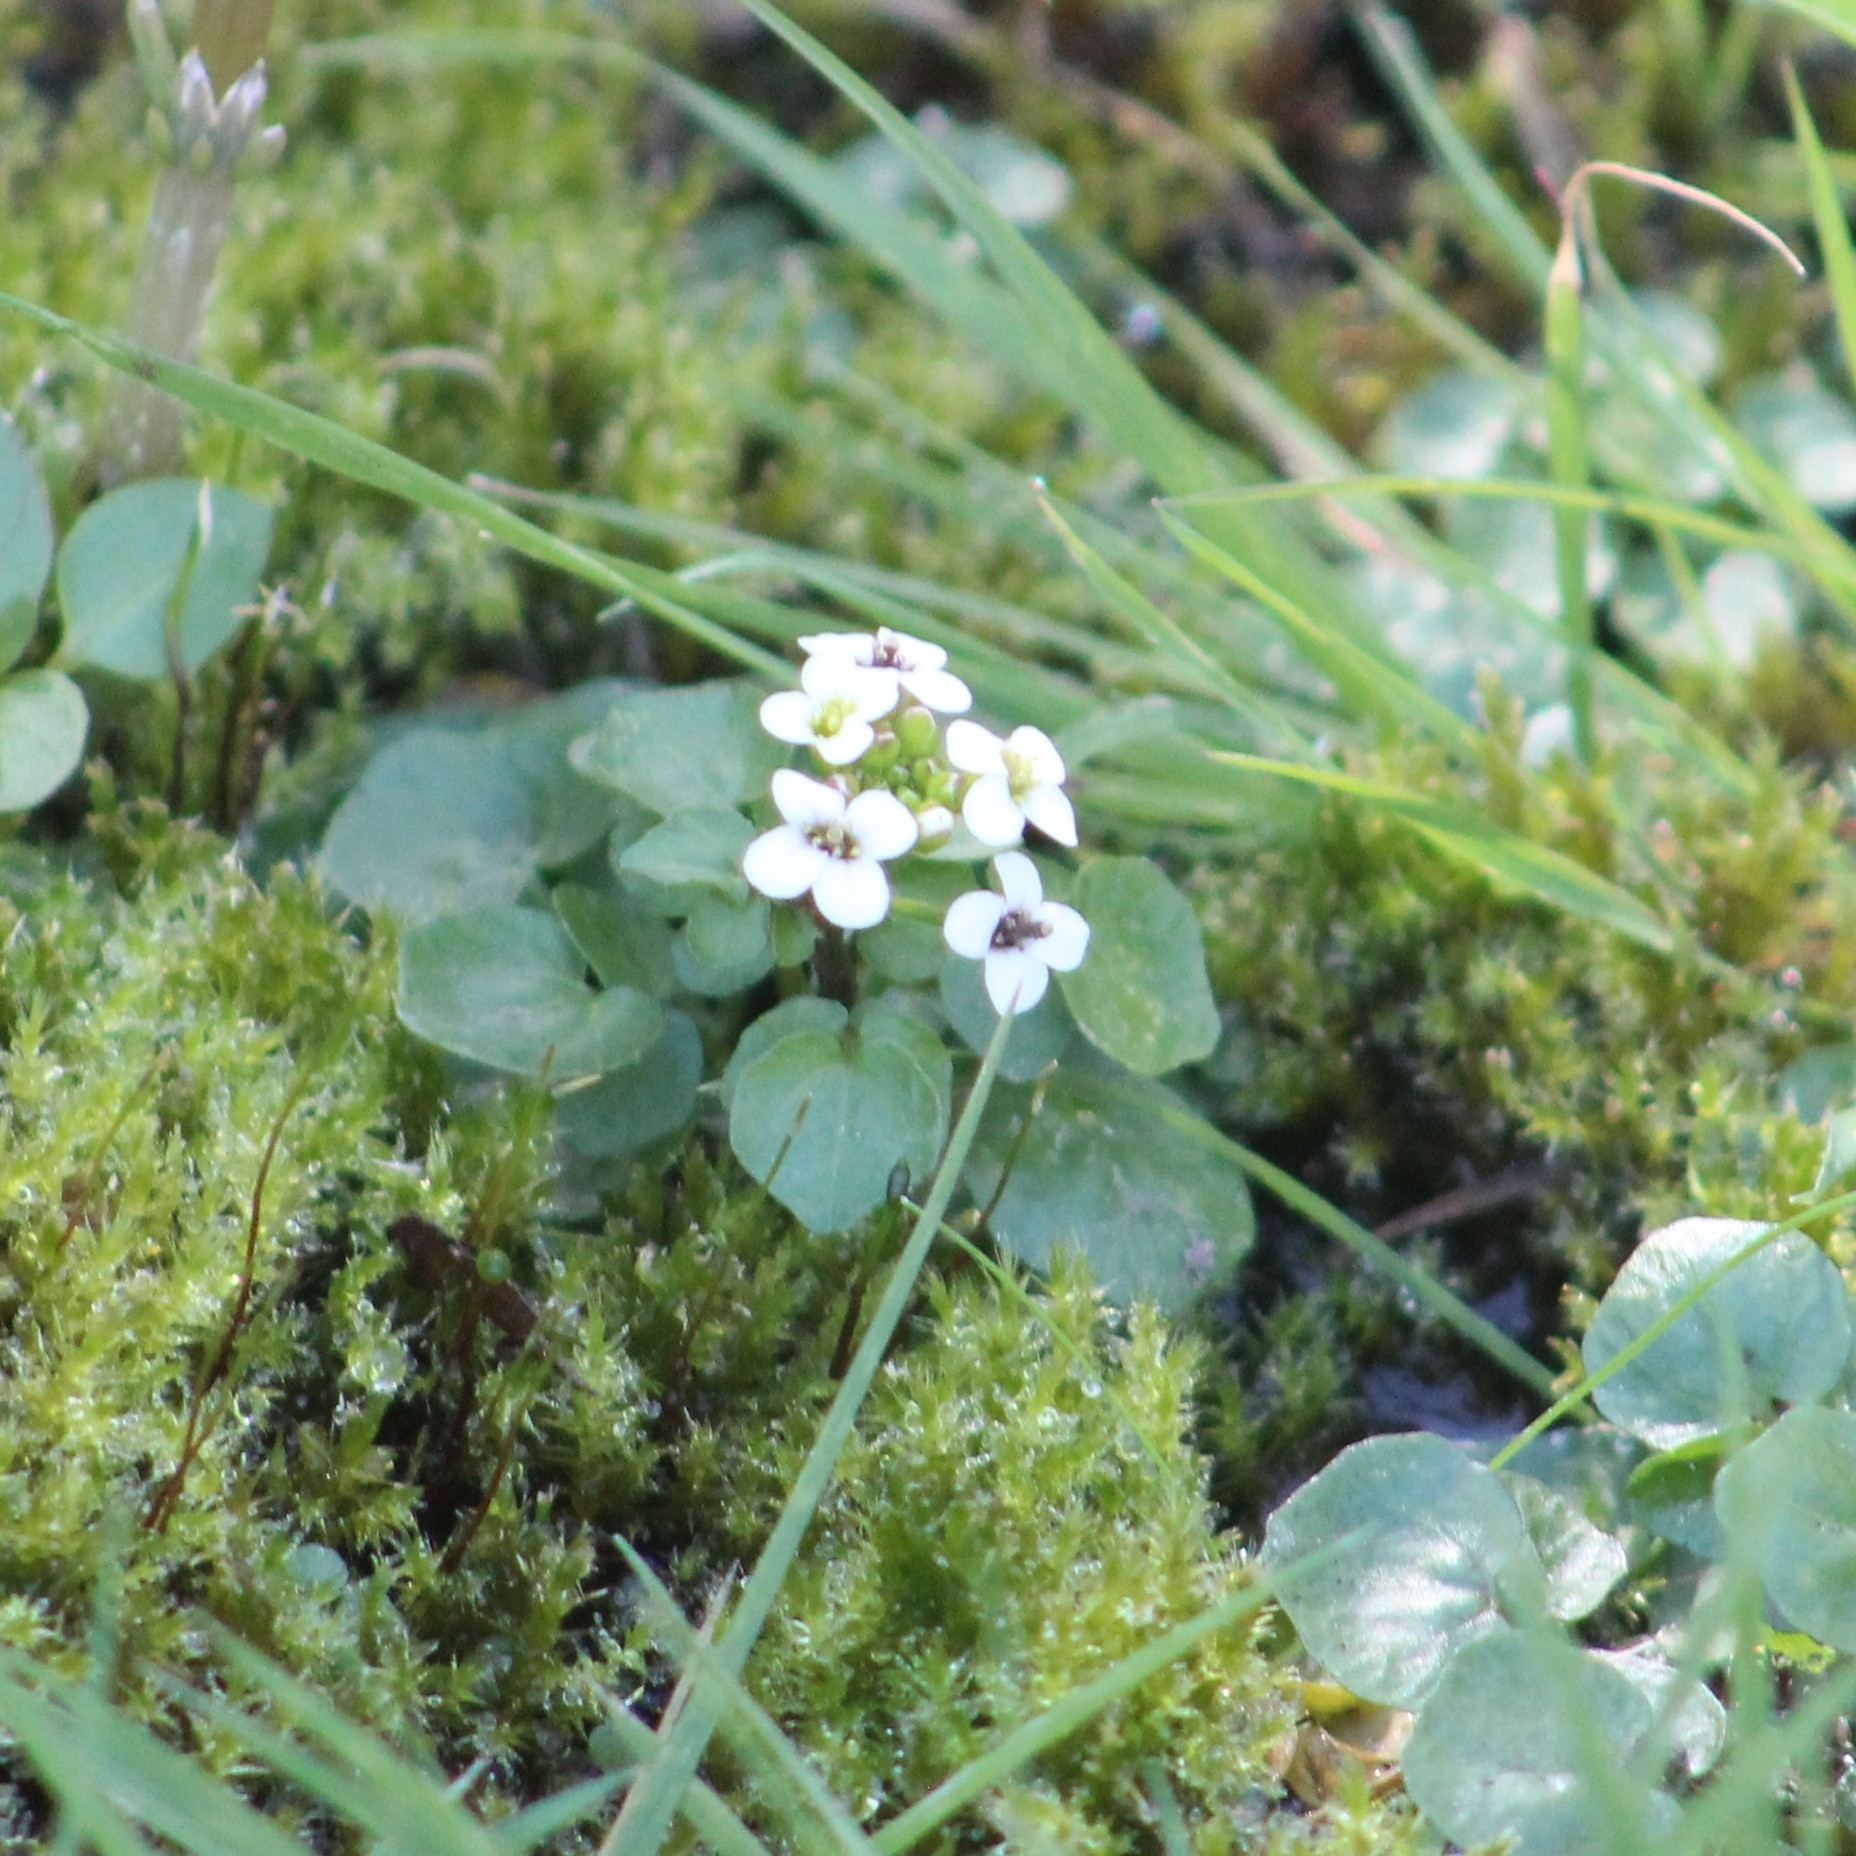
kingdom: Plantae
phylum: Tracheophyta
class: Magnoliopsida
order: Brassicales
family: Brassicaceae
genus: Nasturtium
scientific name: Nasturtium officinale
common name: Watercress
